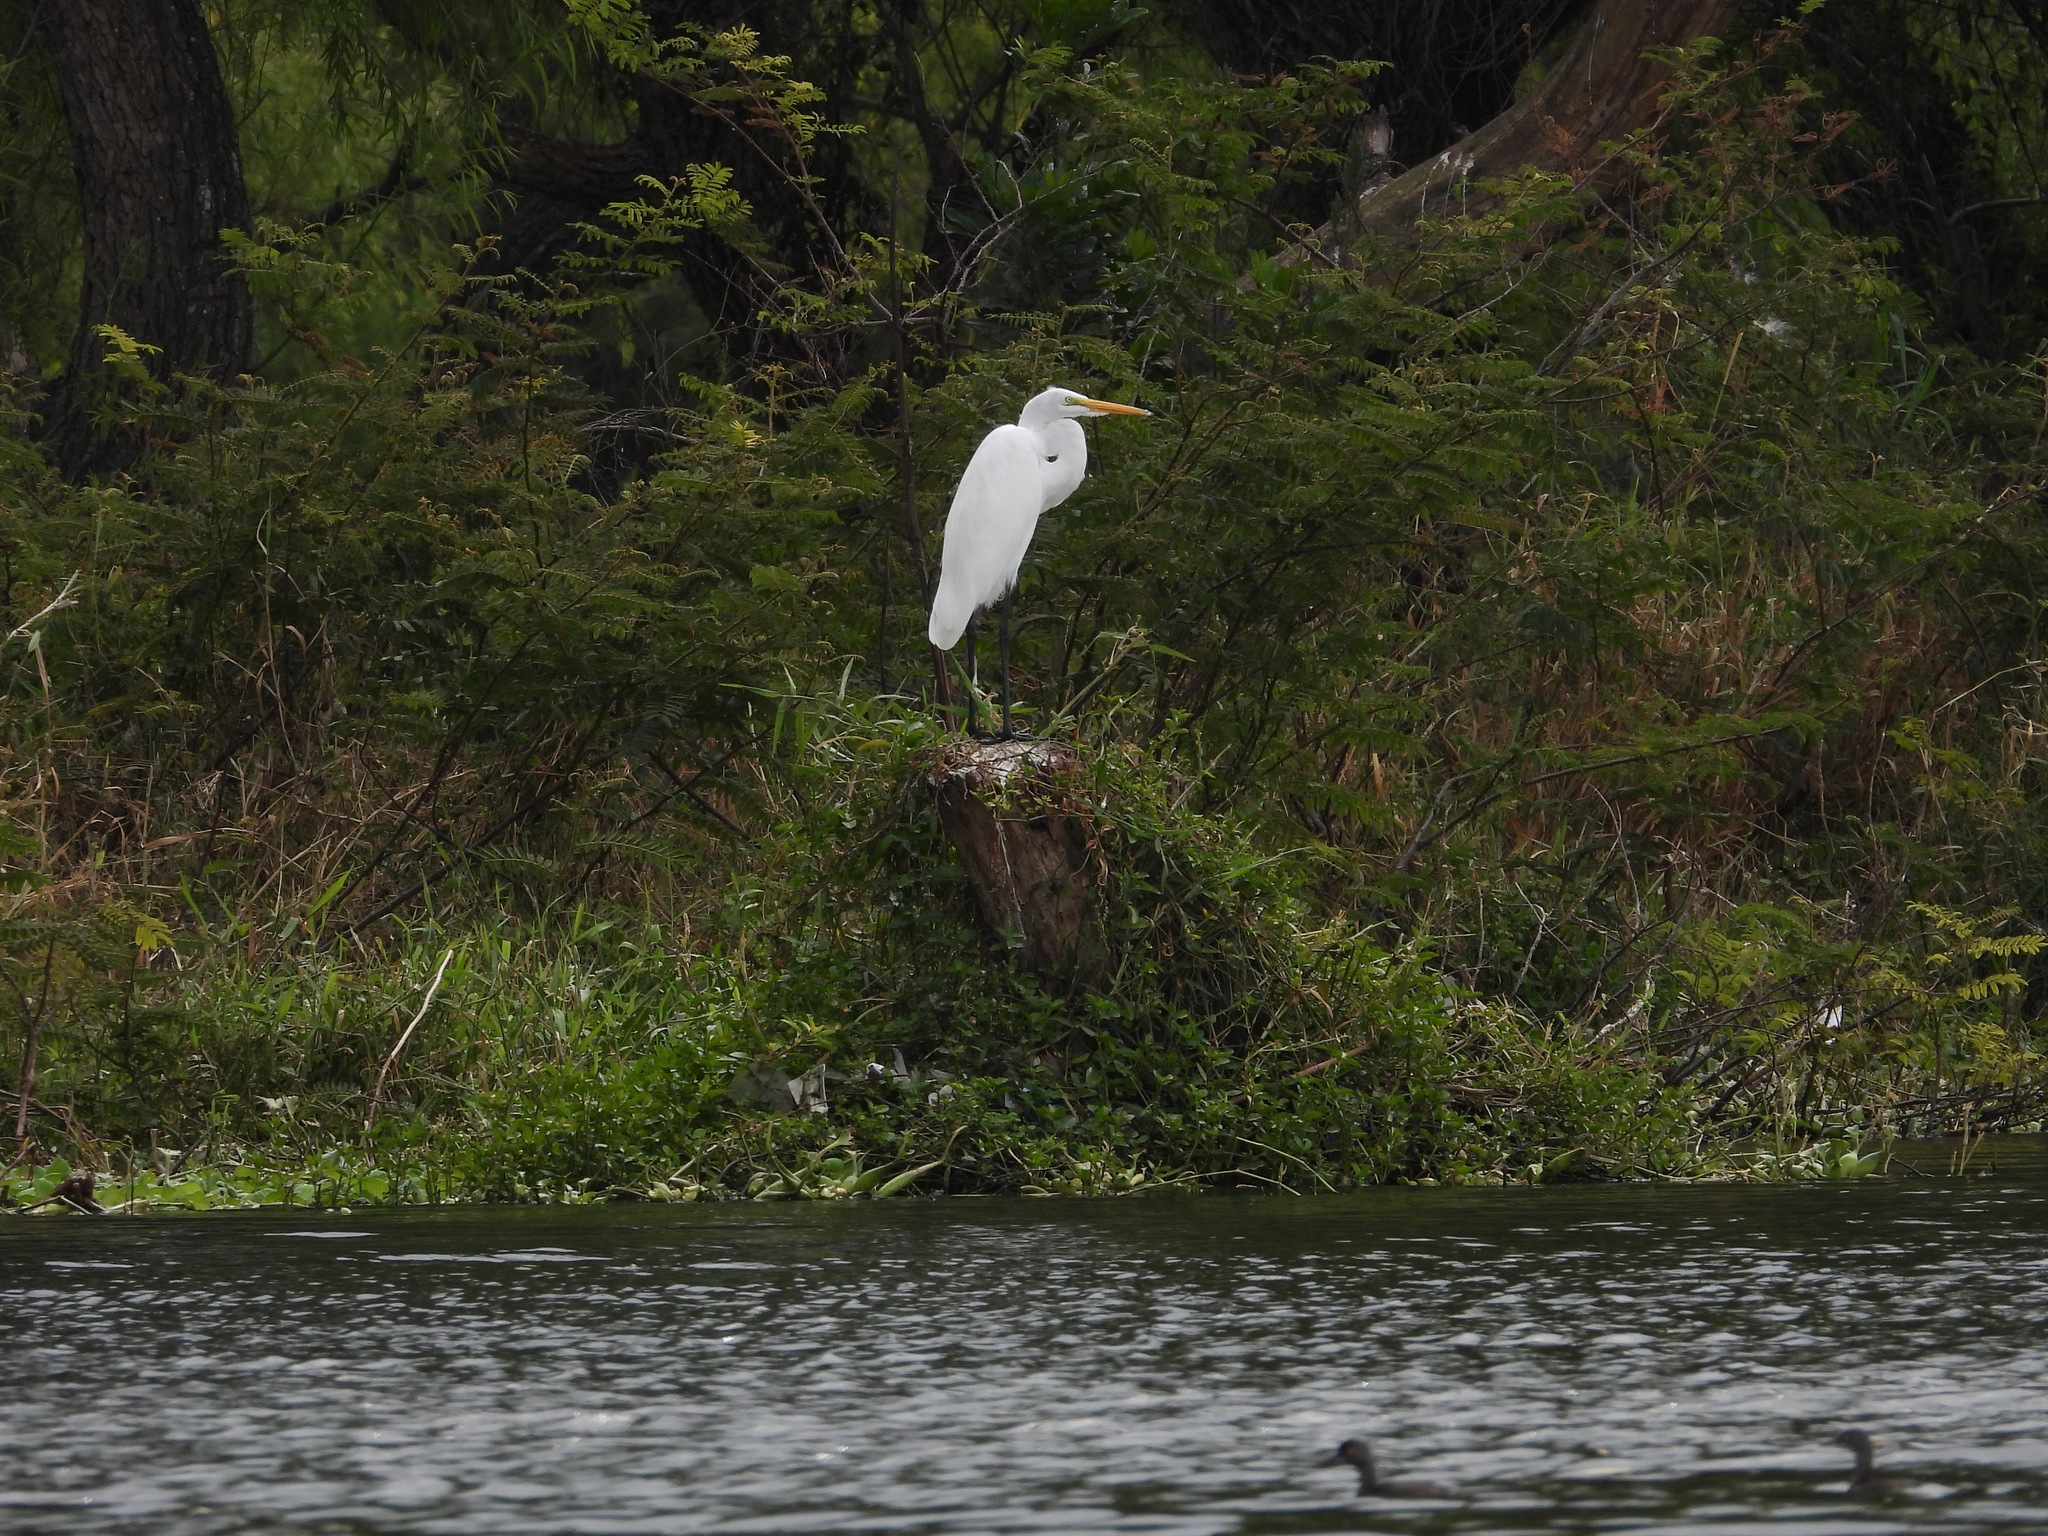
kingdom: Animalia
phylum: Chordata
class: Aves
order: Pelecaniformes
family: Ardeidae
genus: Ardea
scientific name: Ardea alba
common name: Great egret
